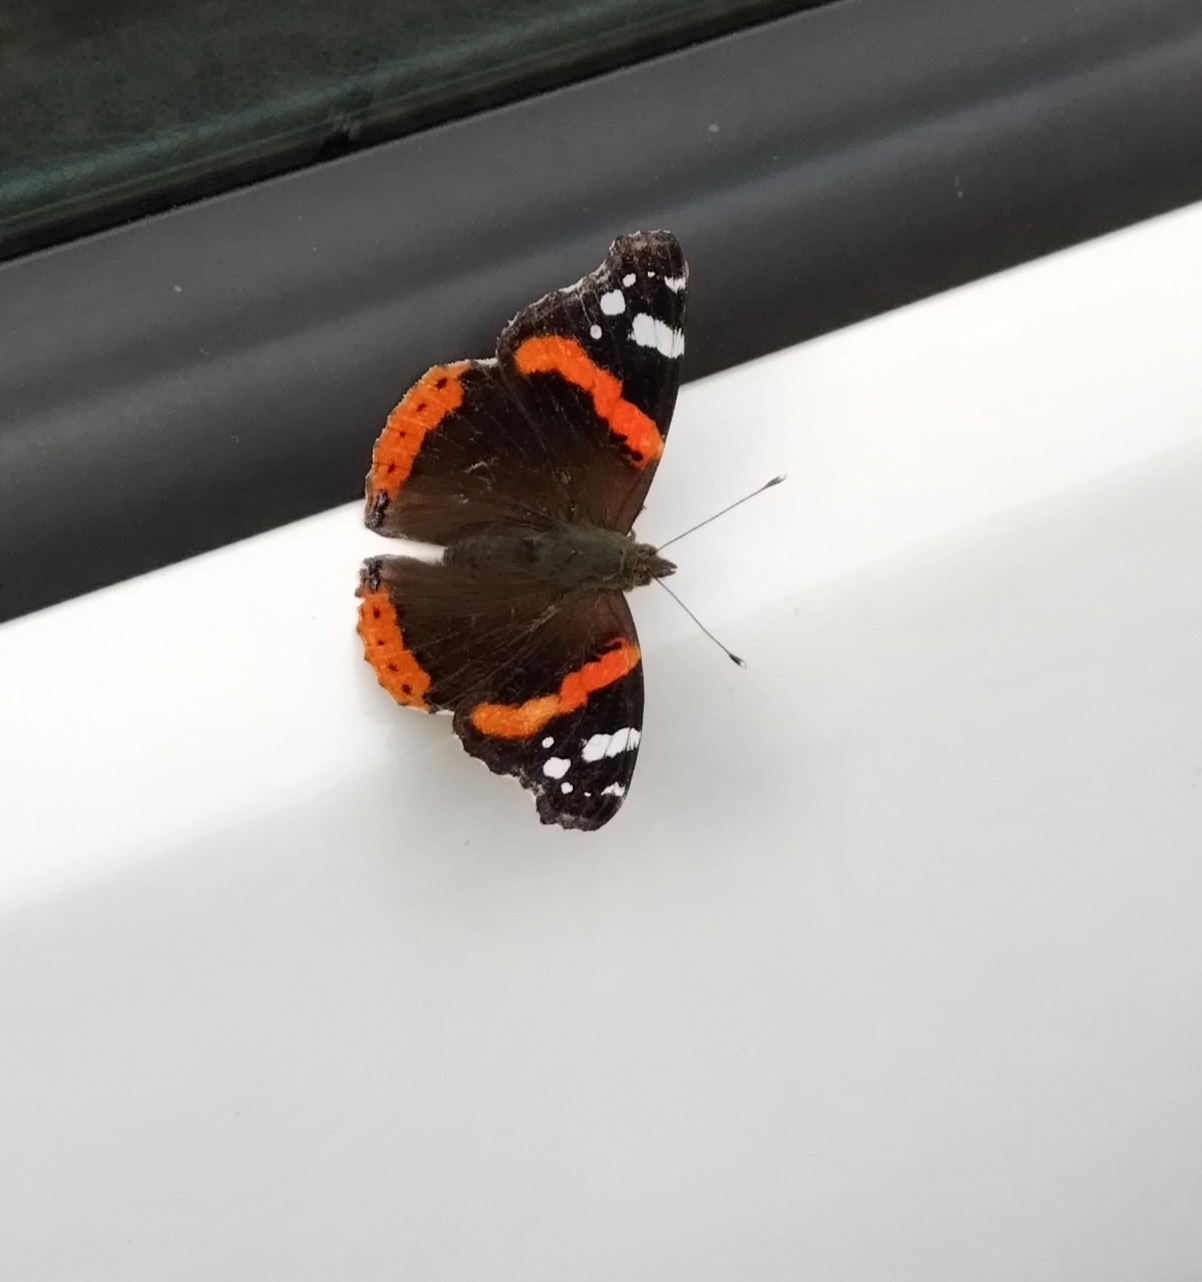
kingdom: Animalia
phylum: Arthropoda
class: Insecta
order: Lepidoptera
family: Nymphalidae
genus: Vanessa
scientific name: Vanessa atalanta
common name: Red admiral
